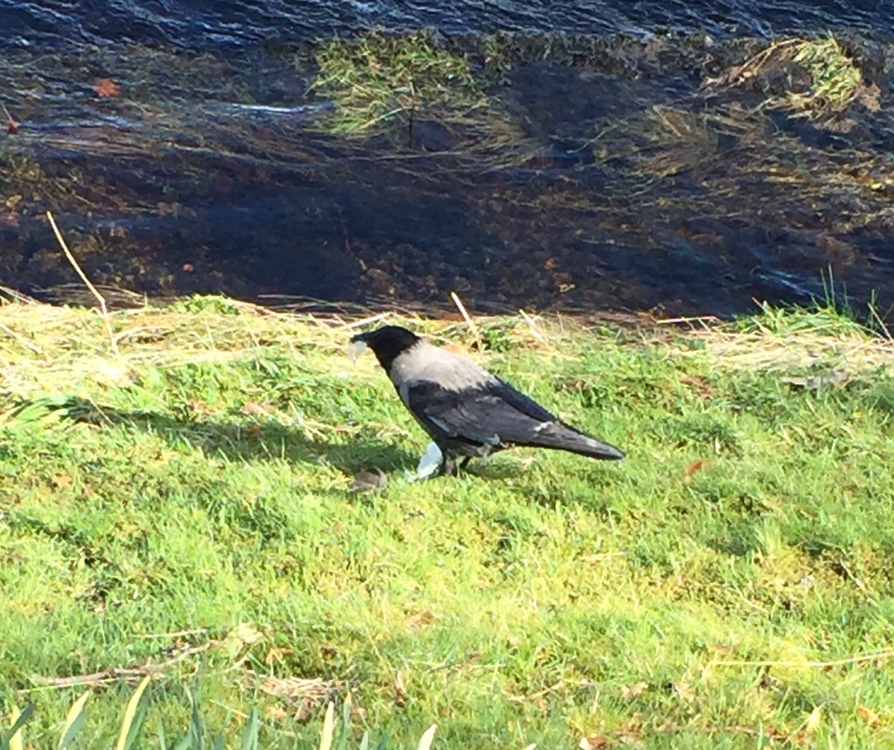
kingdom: Animalia
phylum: Chordata
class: Aves
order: Passeriformes
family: Corvidae
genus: Corvus
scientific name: Corvus cornix
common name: Hooded crow
